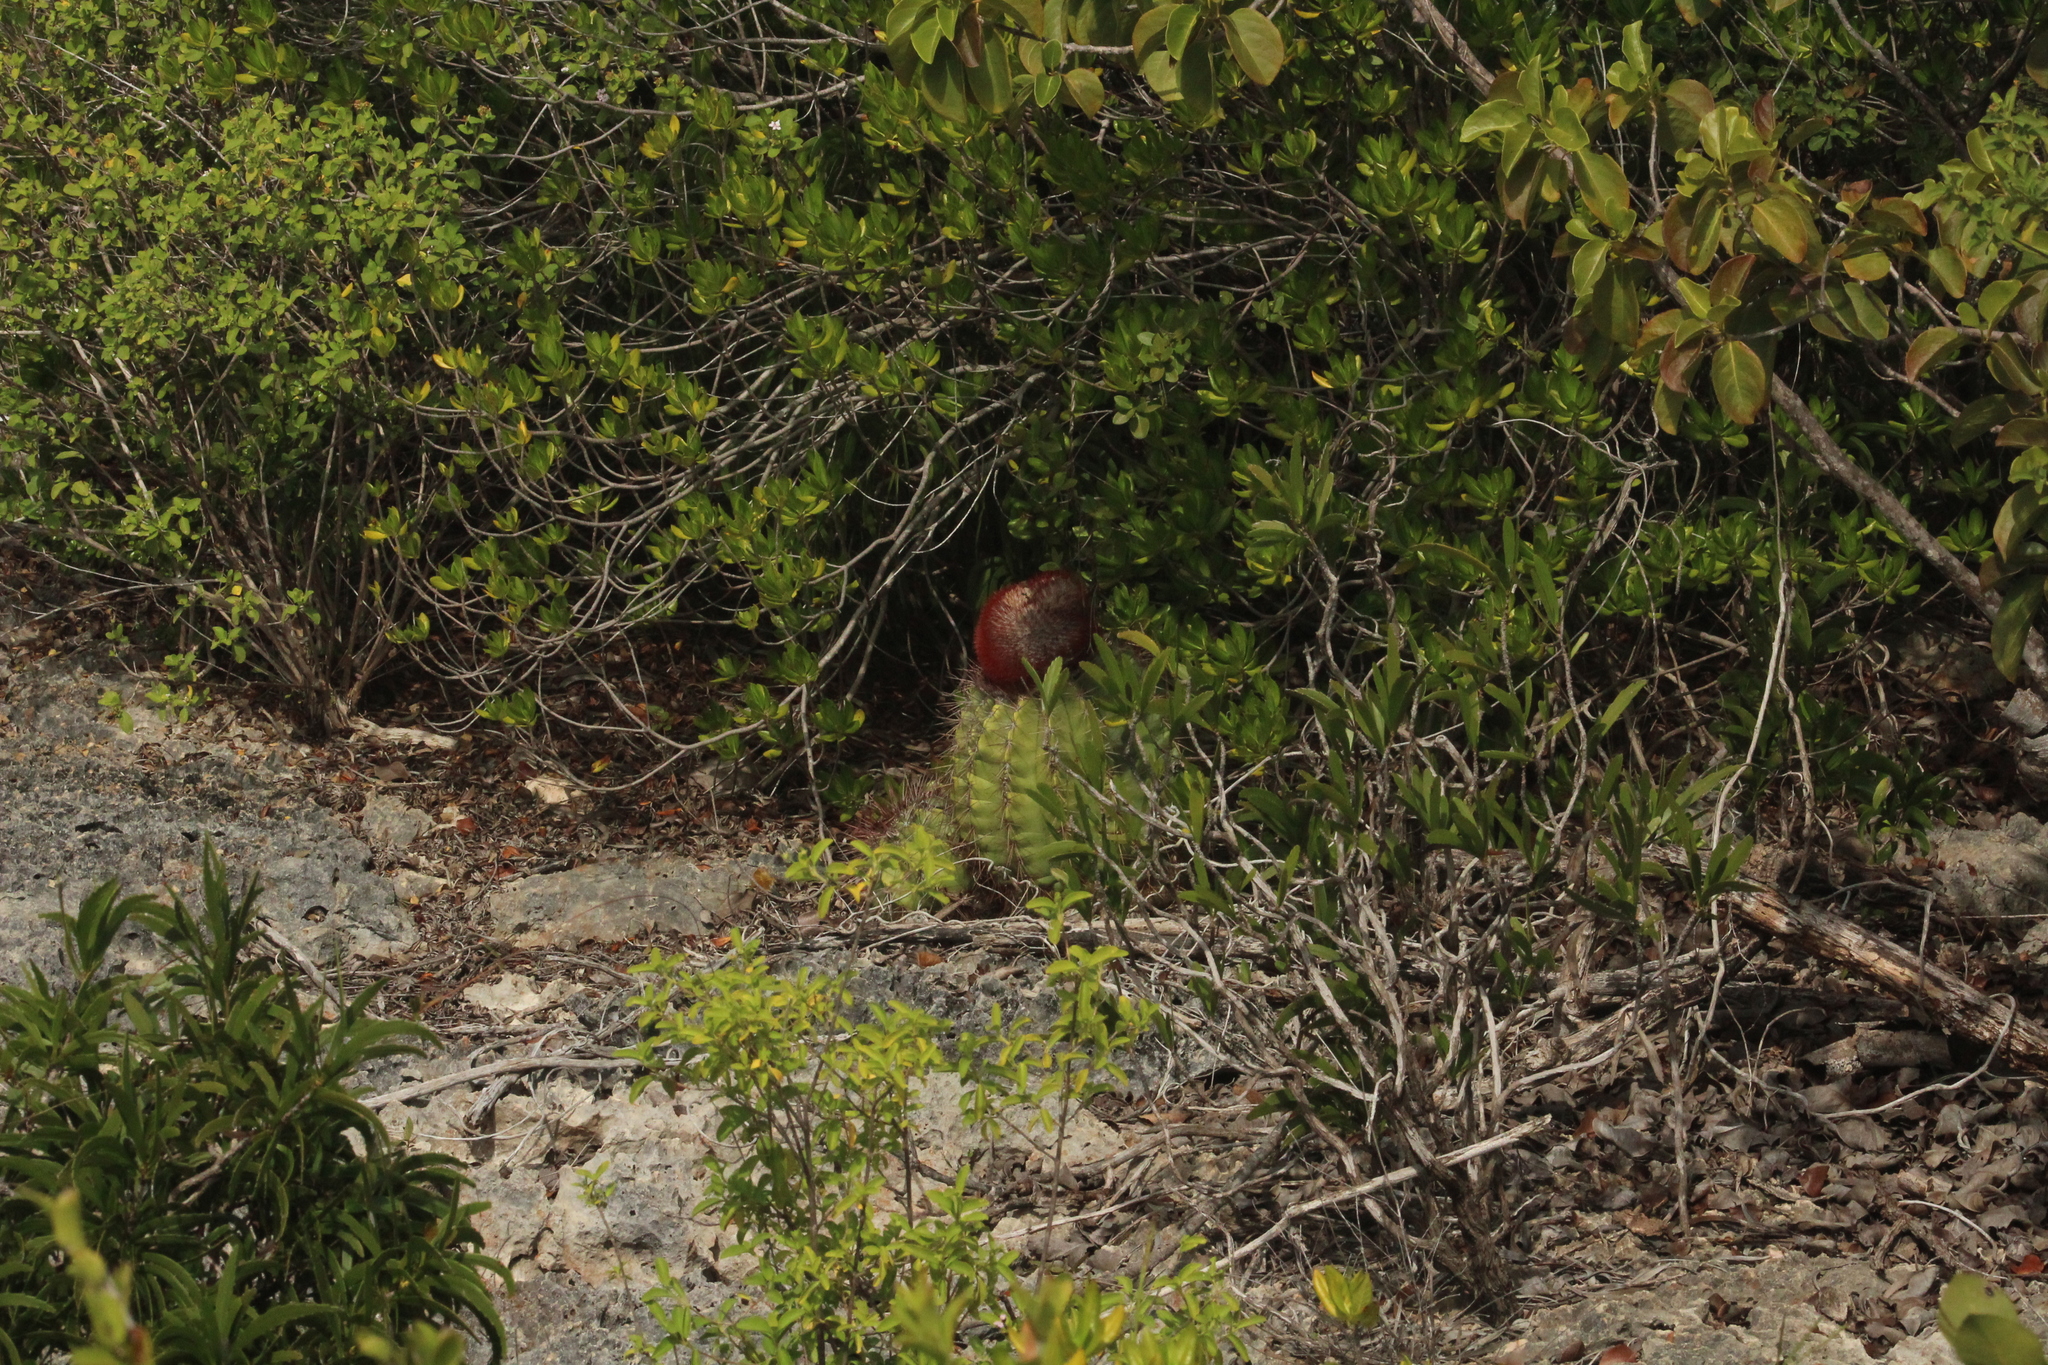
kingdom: Plantae
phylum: Tracheophyta
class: Magnoliopsida
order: Caryophyllales
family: Cactaceae
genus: Melocactus
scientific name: Melocactus intortus
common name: Barrel cactus
